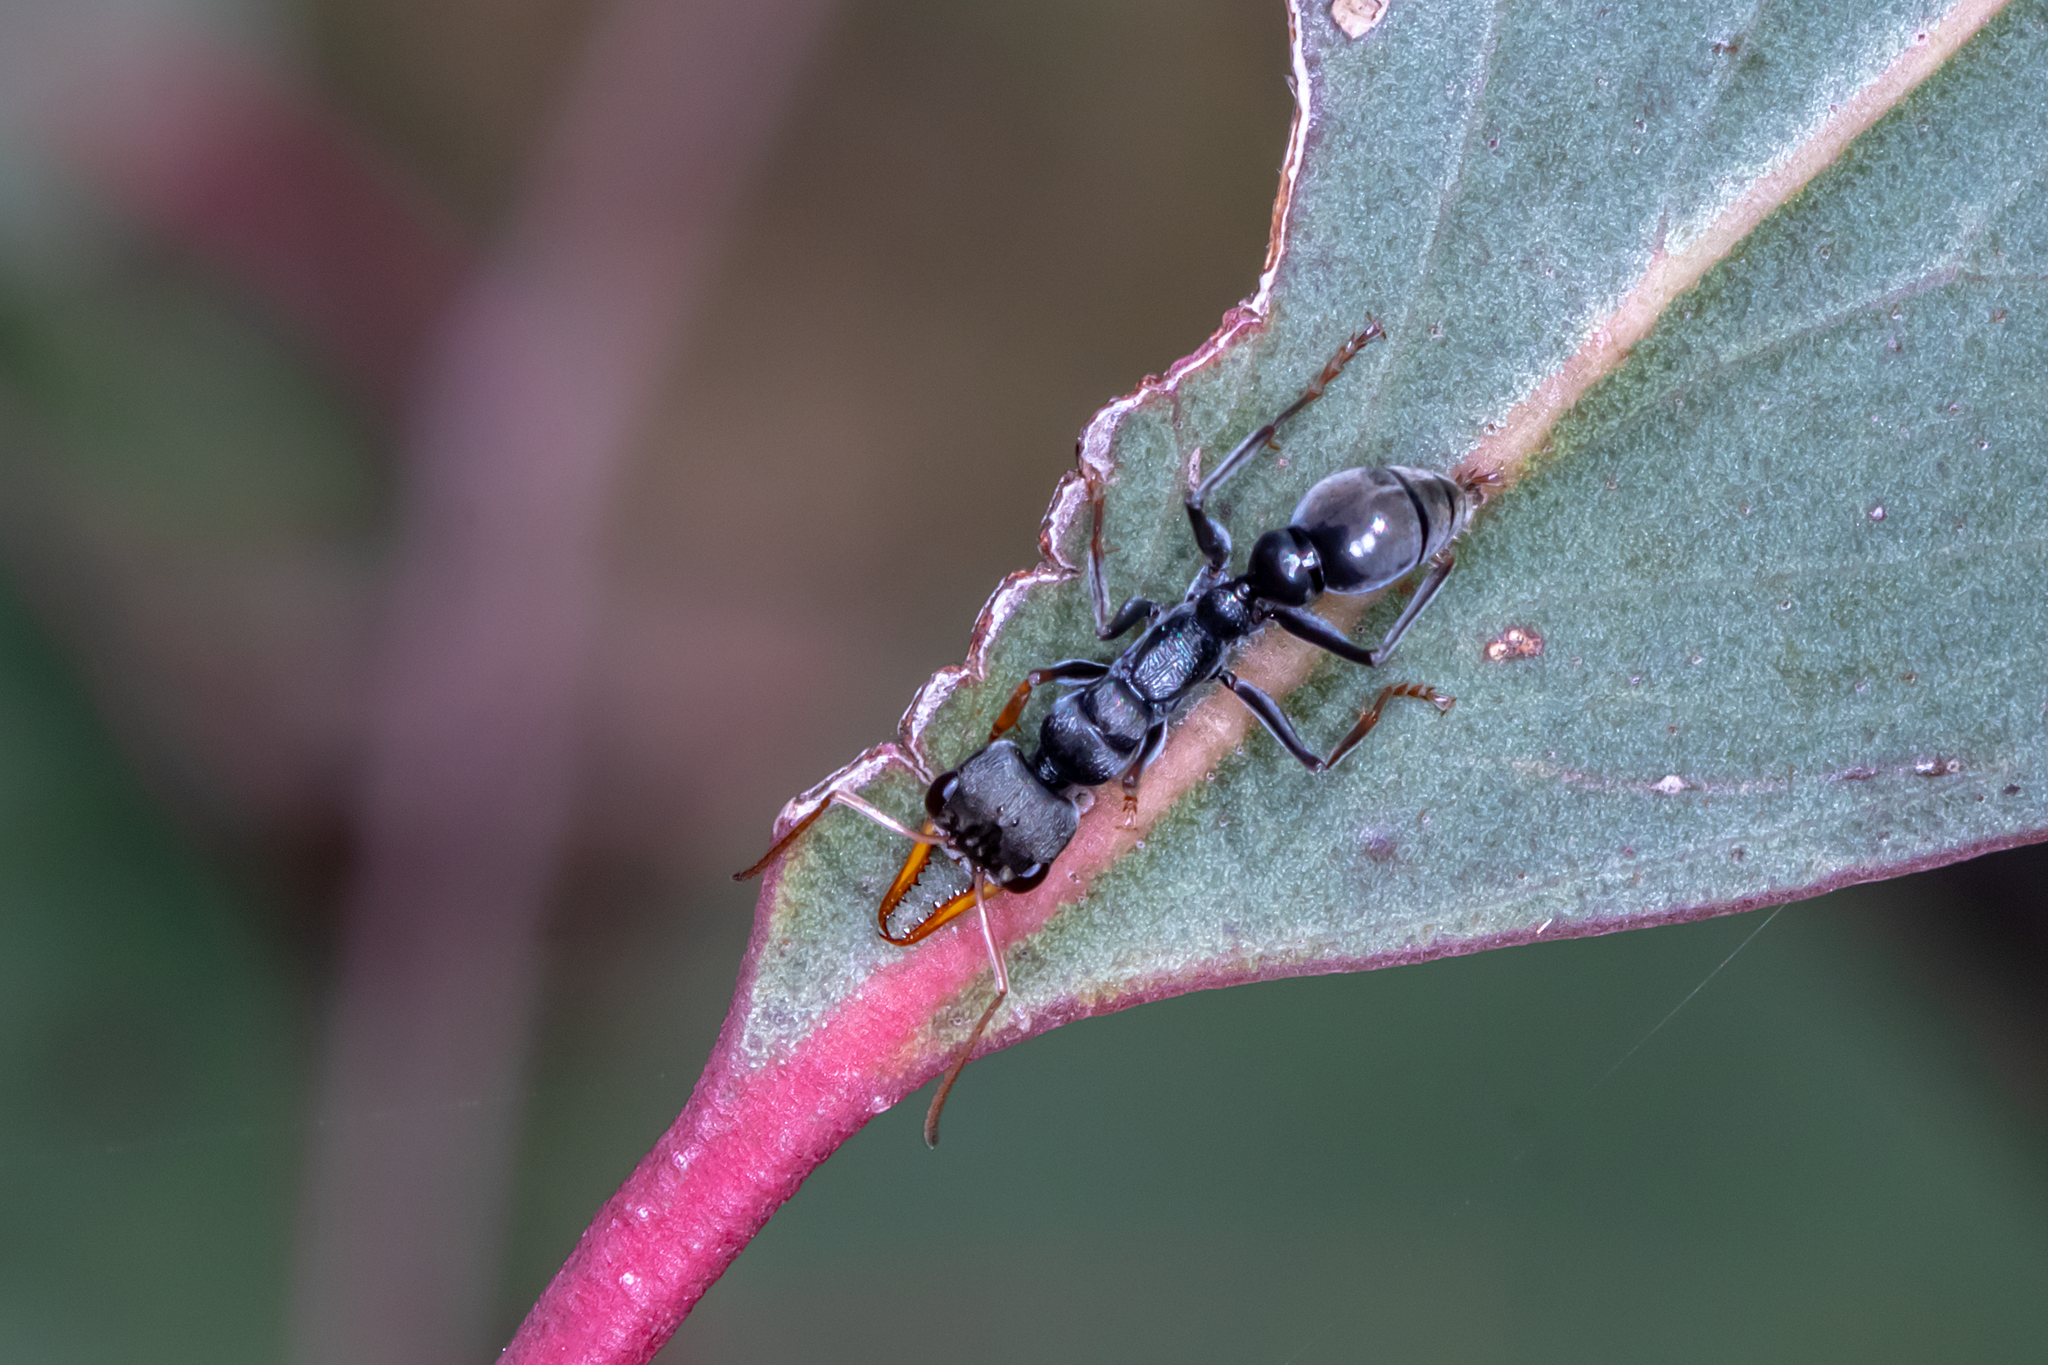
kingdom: Animalia
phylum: Arthropoda
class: Insecta
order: Hymenoptera
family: Formicidae
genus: Myrmecia
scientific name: Myrmecia pilosula
